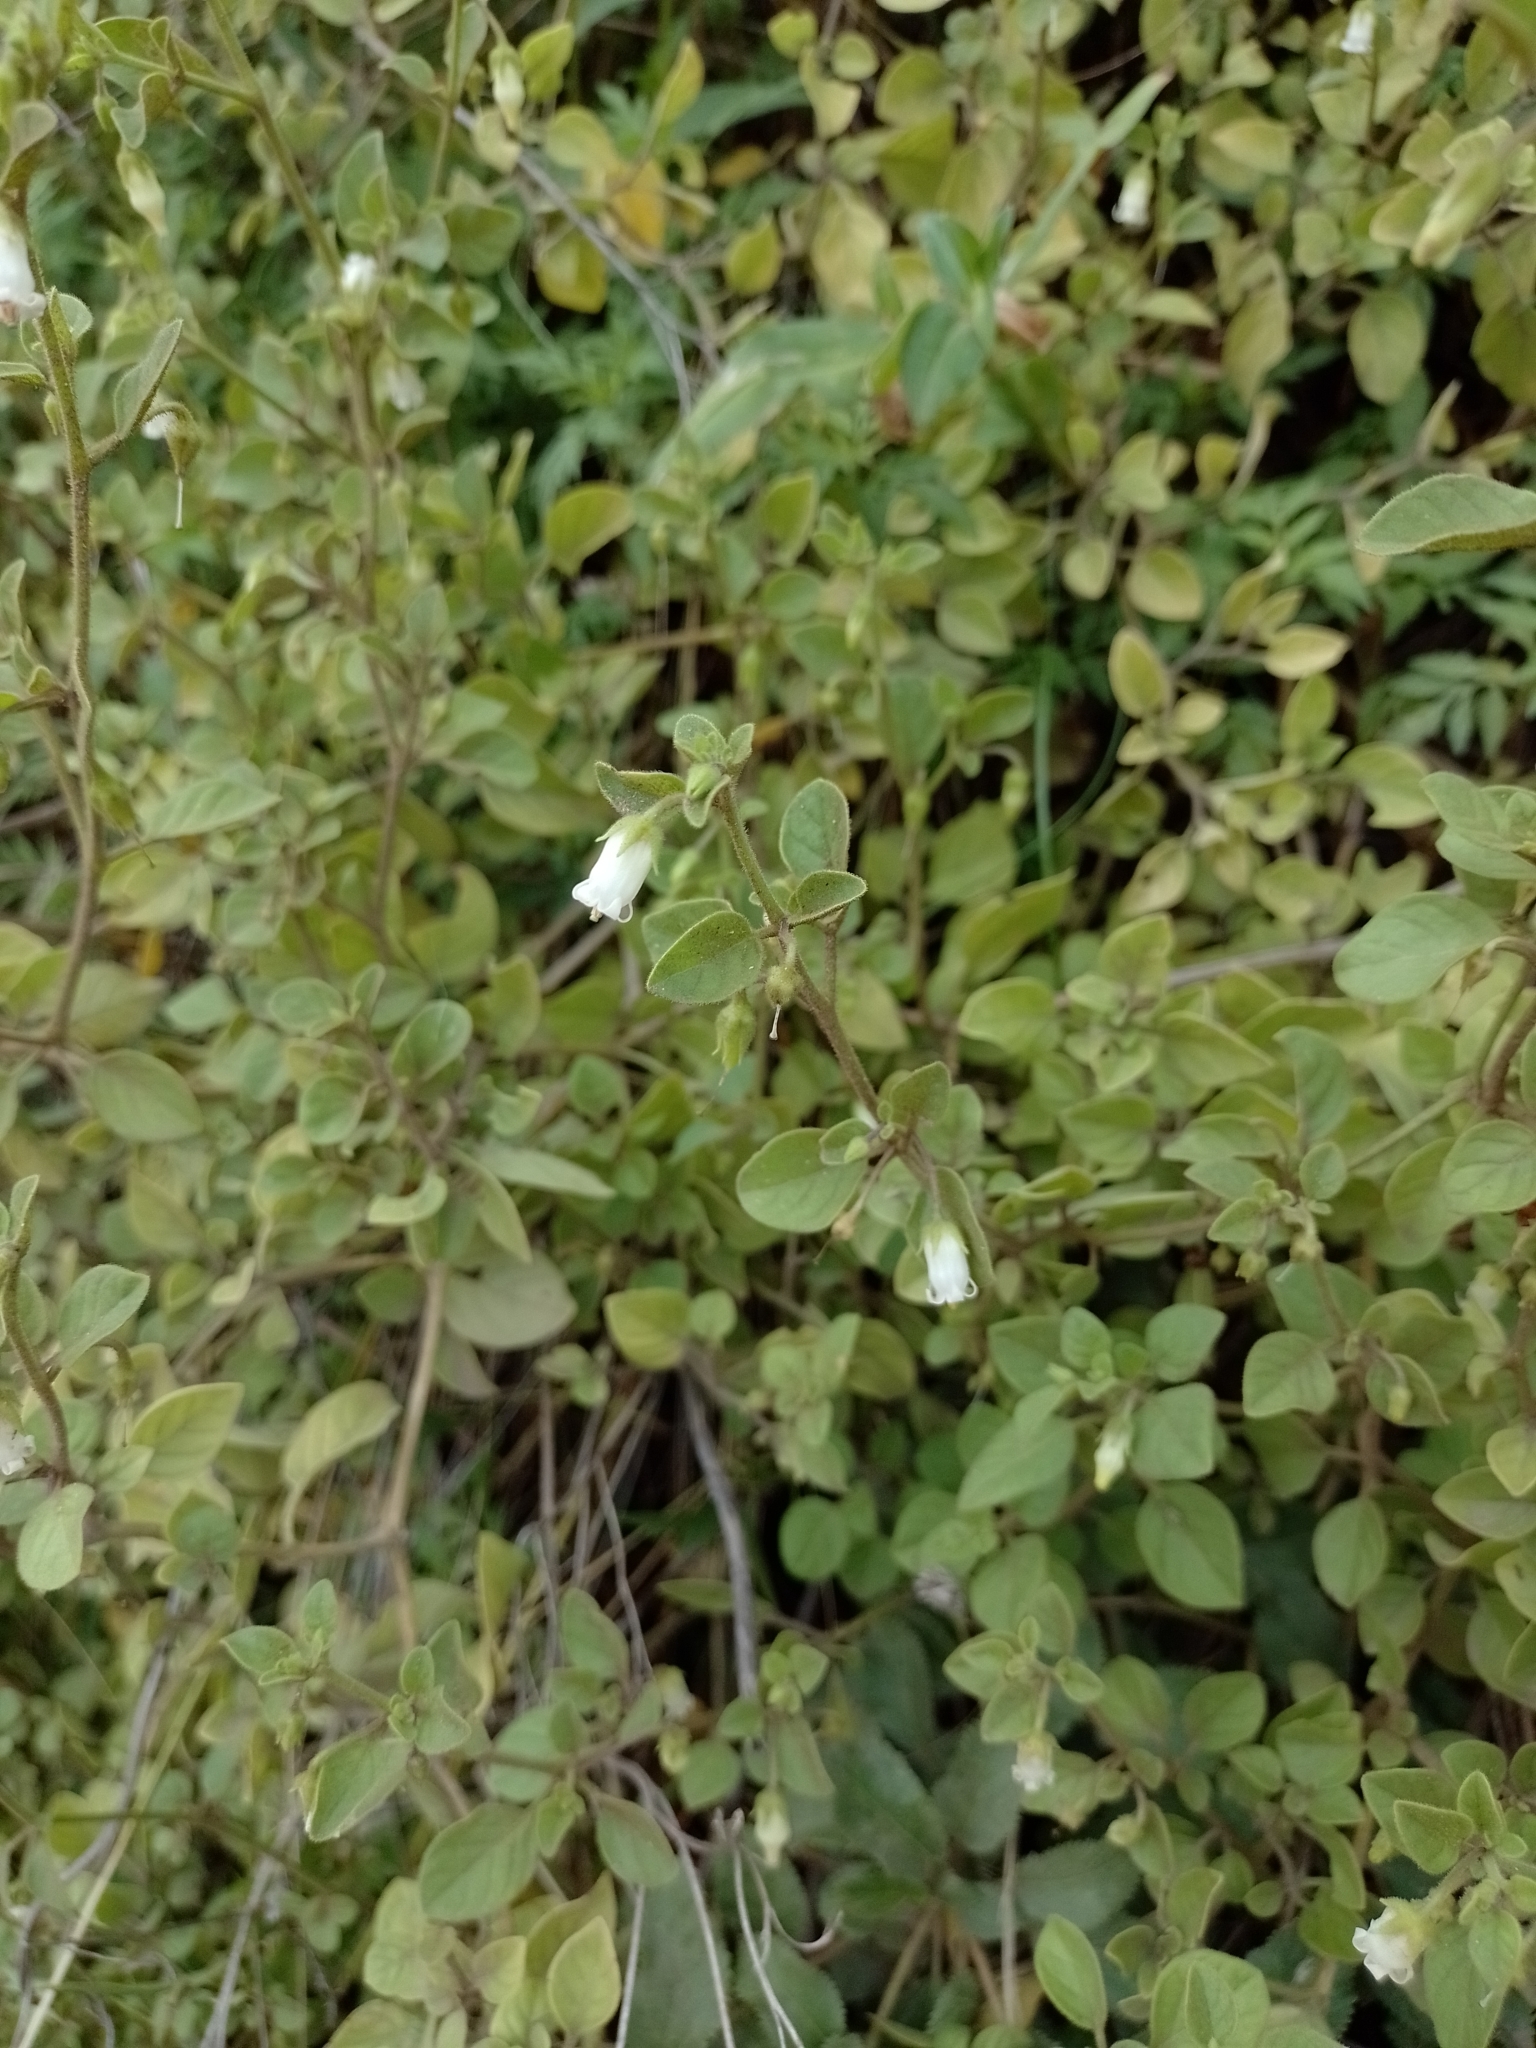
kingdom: Plantae
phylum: Tracheophyta
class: Magnoliopsida
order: Solanales
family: Solanaceae
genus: Salpichroa
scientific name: Salpichroa origanifolia
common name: Lily-of-the-valley-vine
